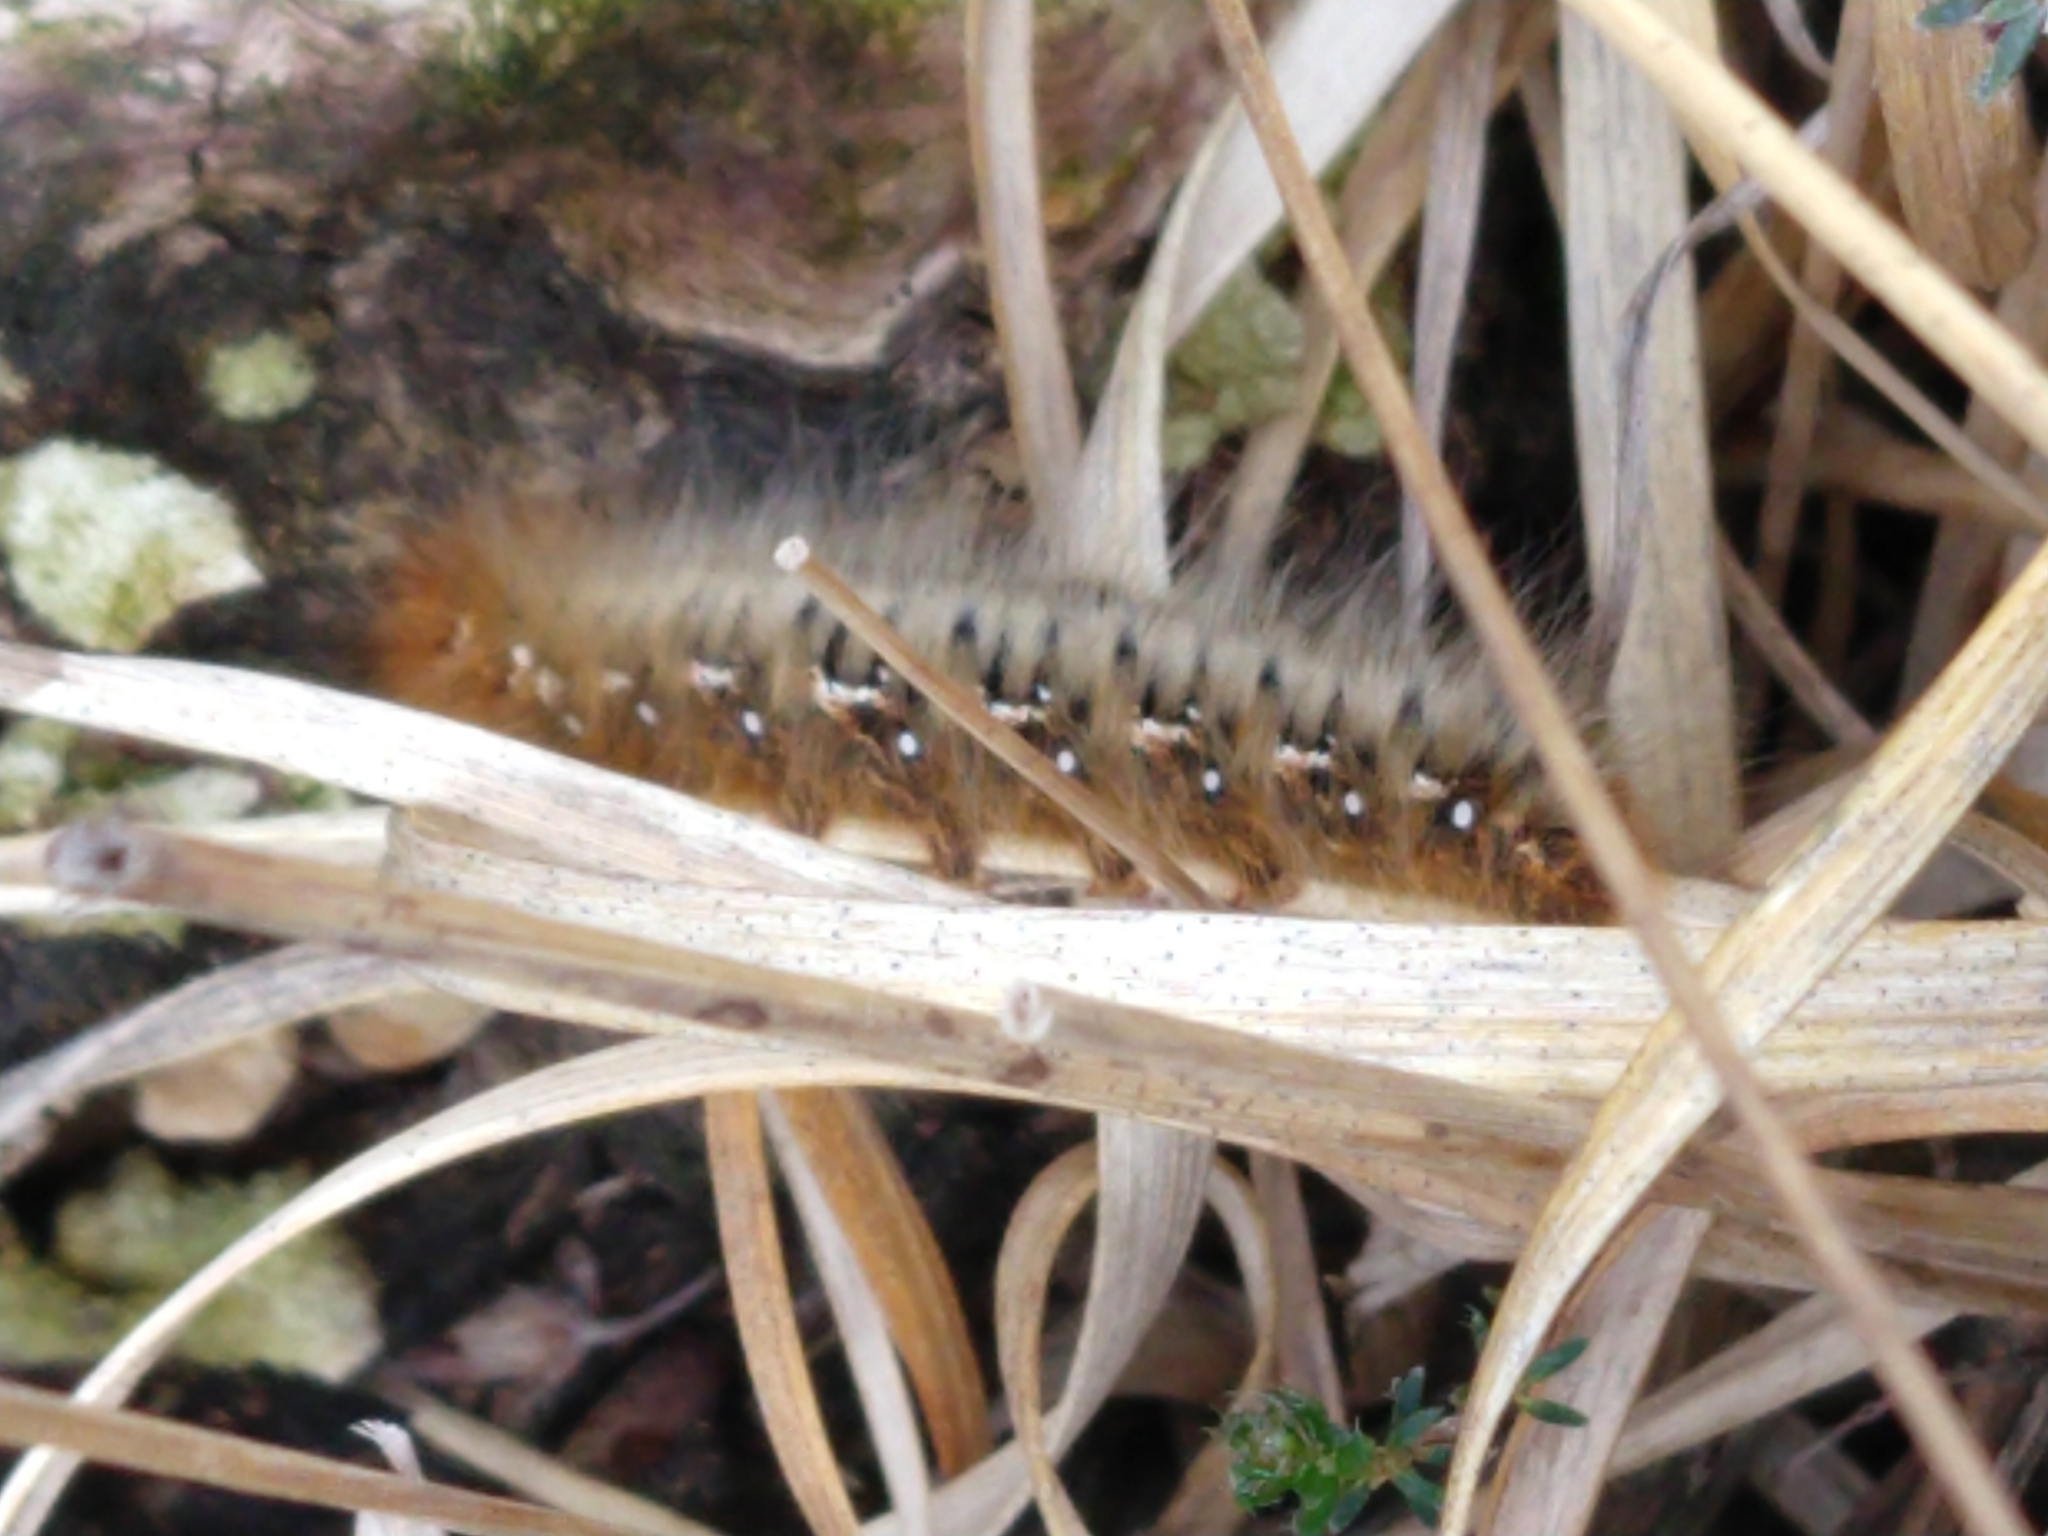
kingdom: Animalia
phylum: Arthropoda
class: Insecta
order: Lepidoptera
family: Lasiocampidae
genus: Lasiocampa
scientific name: Lasiocampa quercus
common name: Oak eggar
